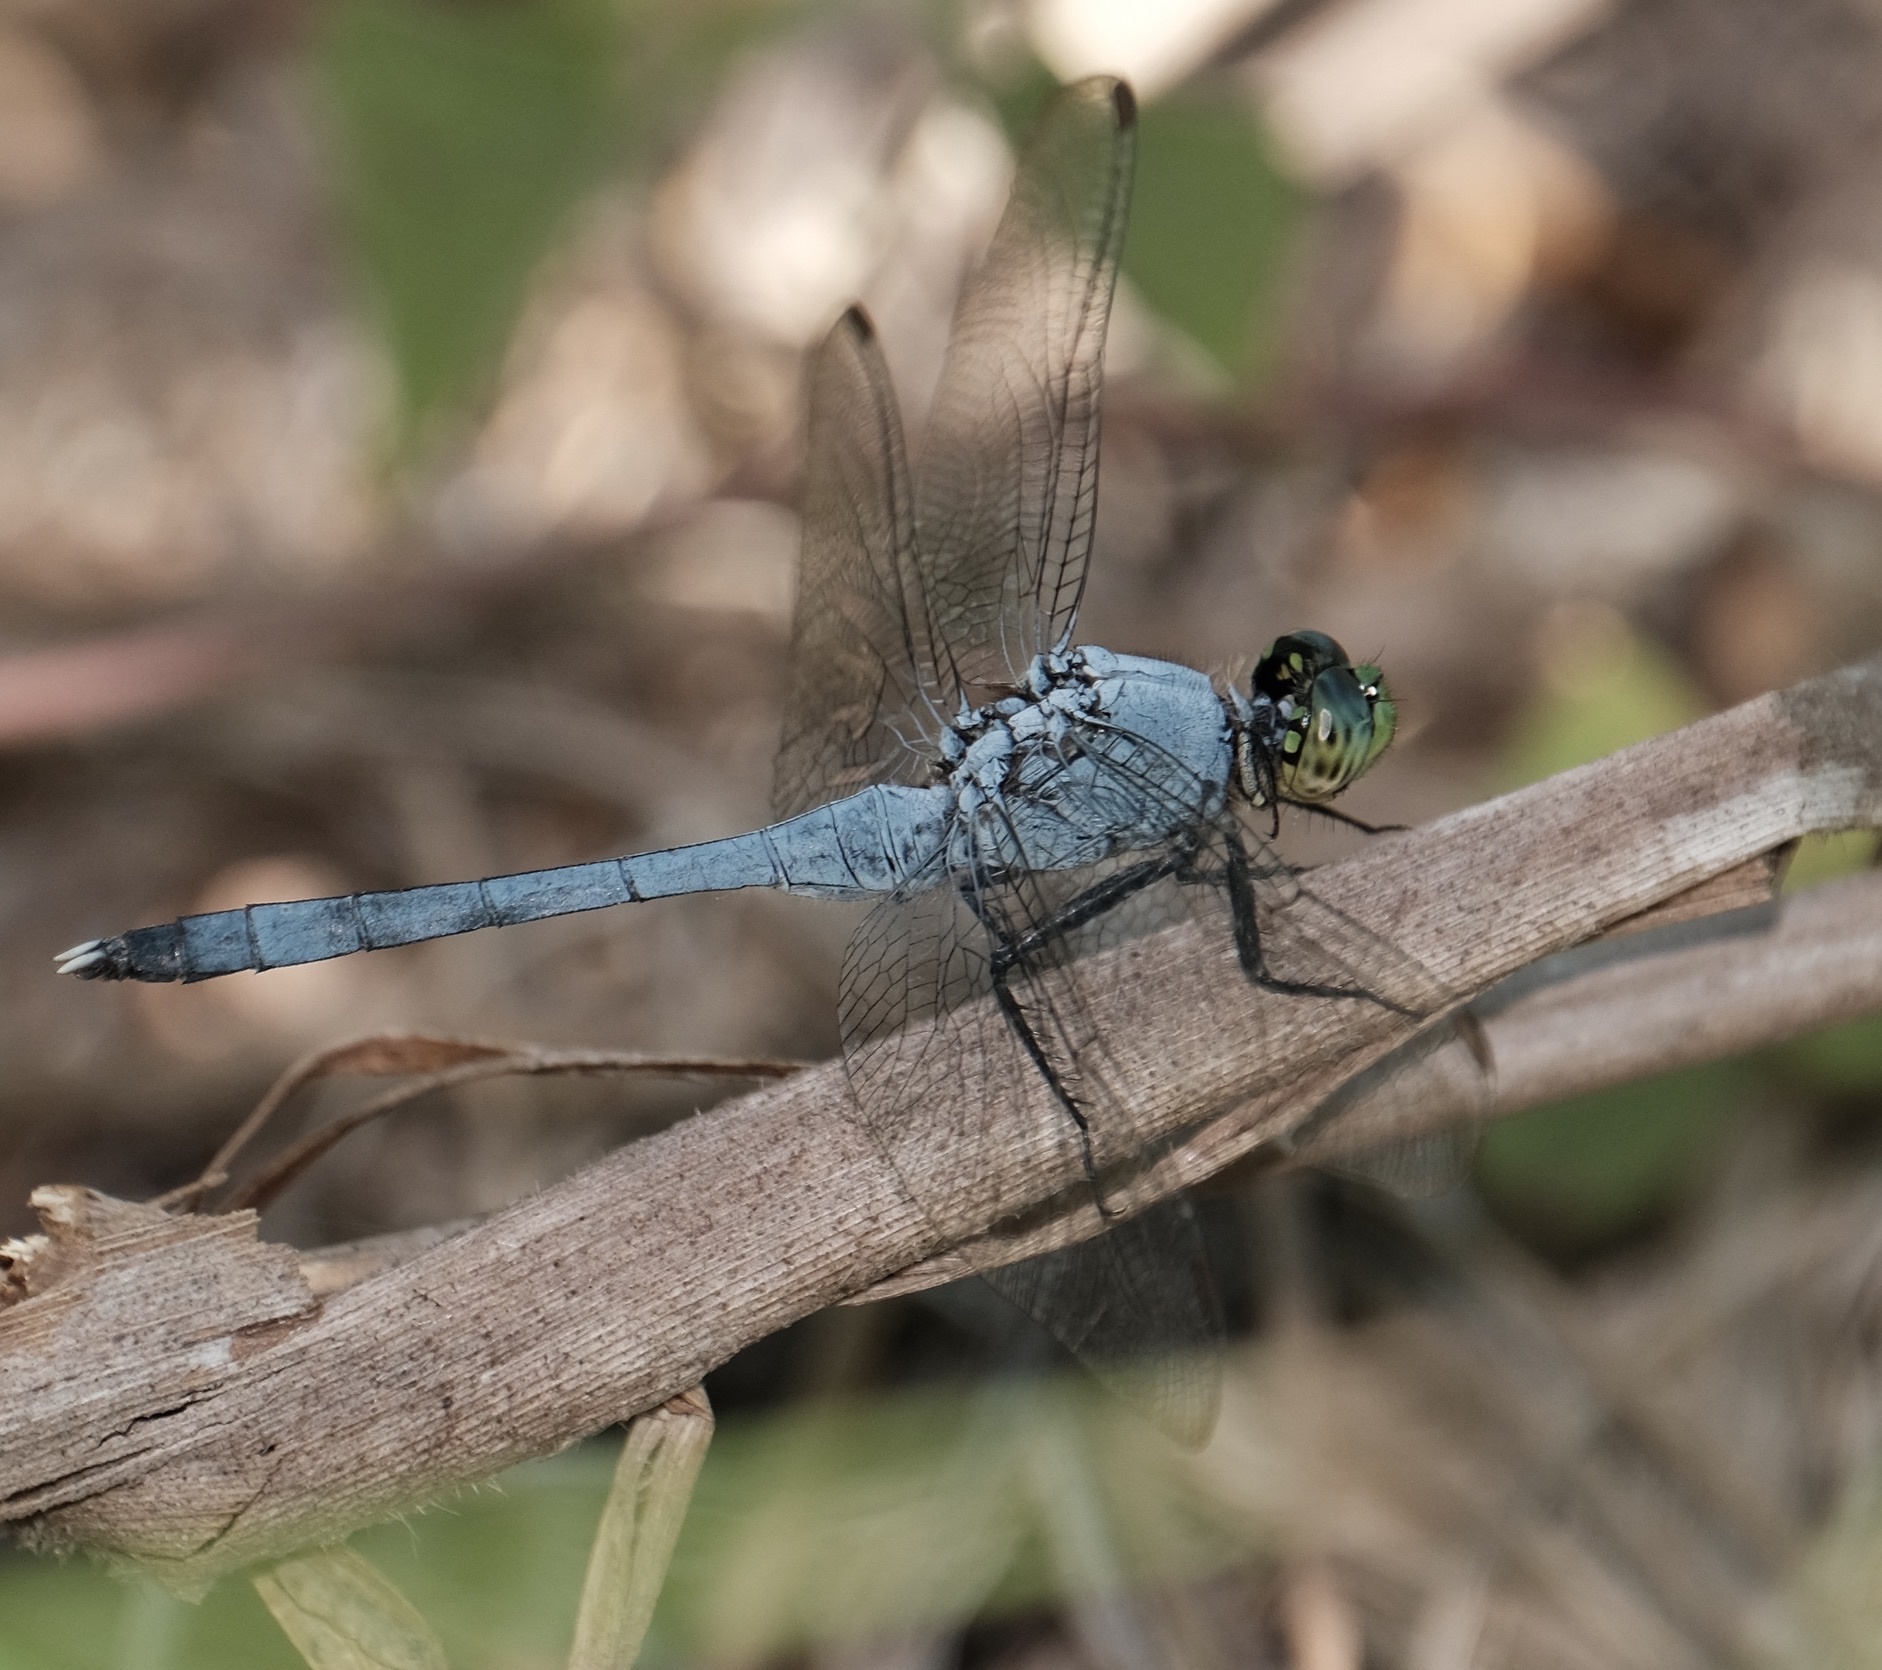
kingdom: Animalia
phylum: Arthropoda
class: Insecta
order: Odonata
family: Libellulidae
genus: Erythemis
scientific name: Erythemis simplicicollis
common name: Eastern pondhawk
